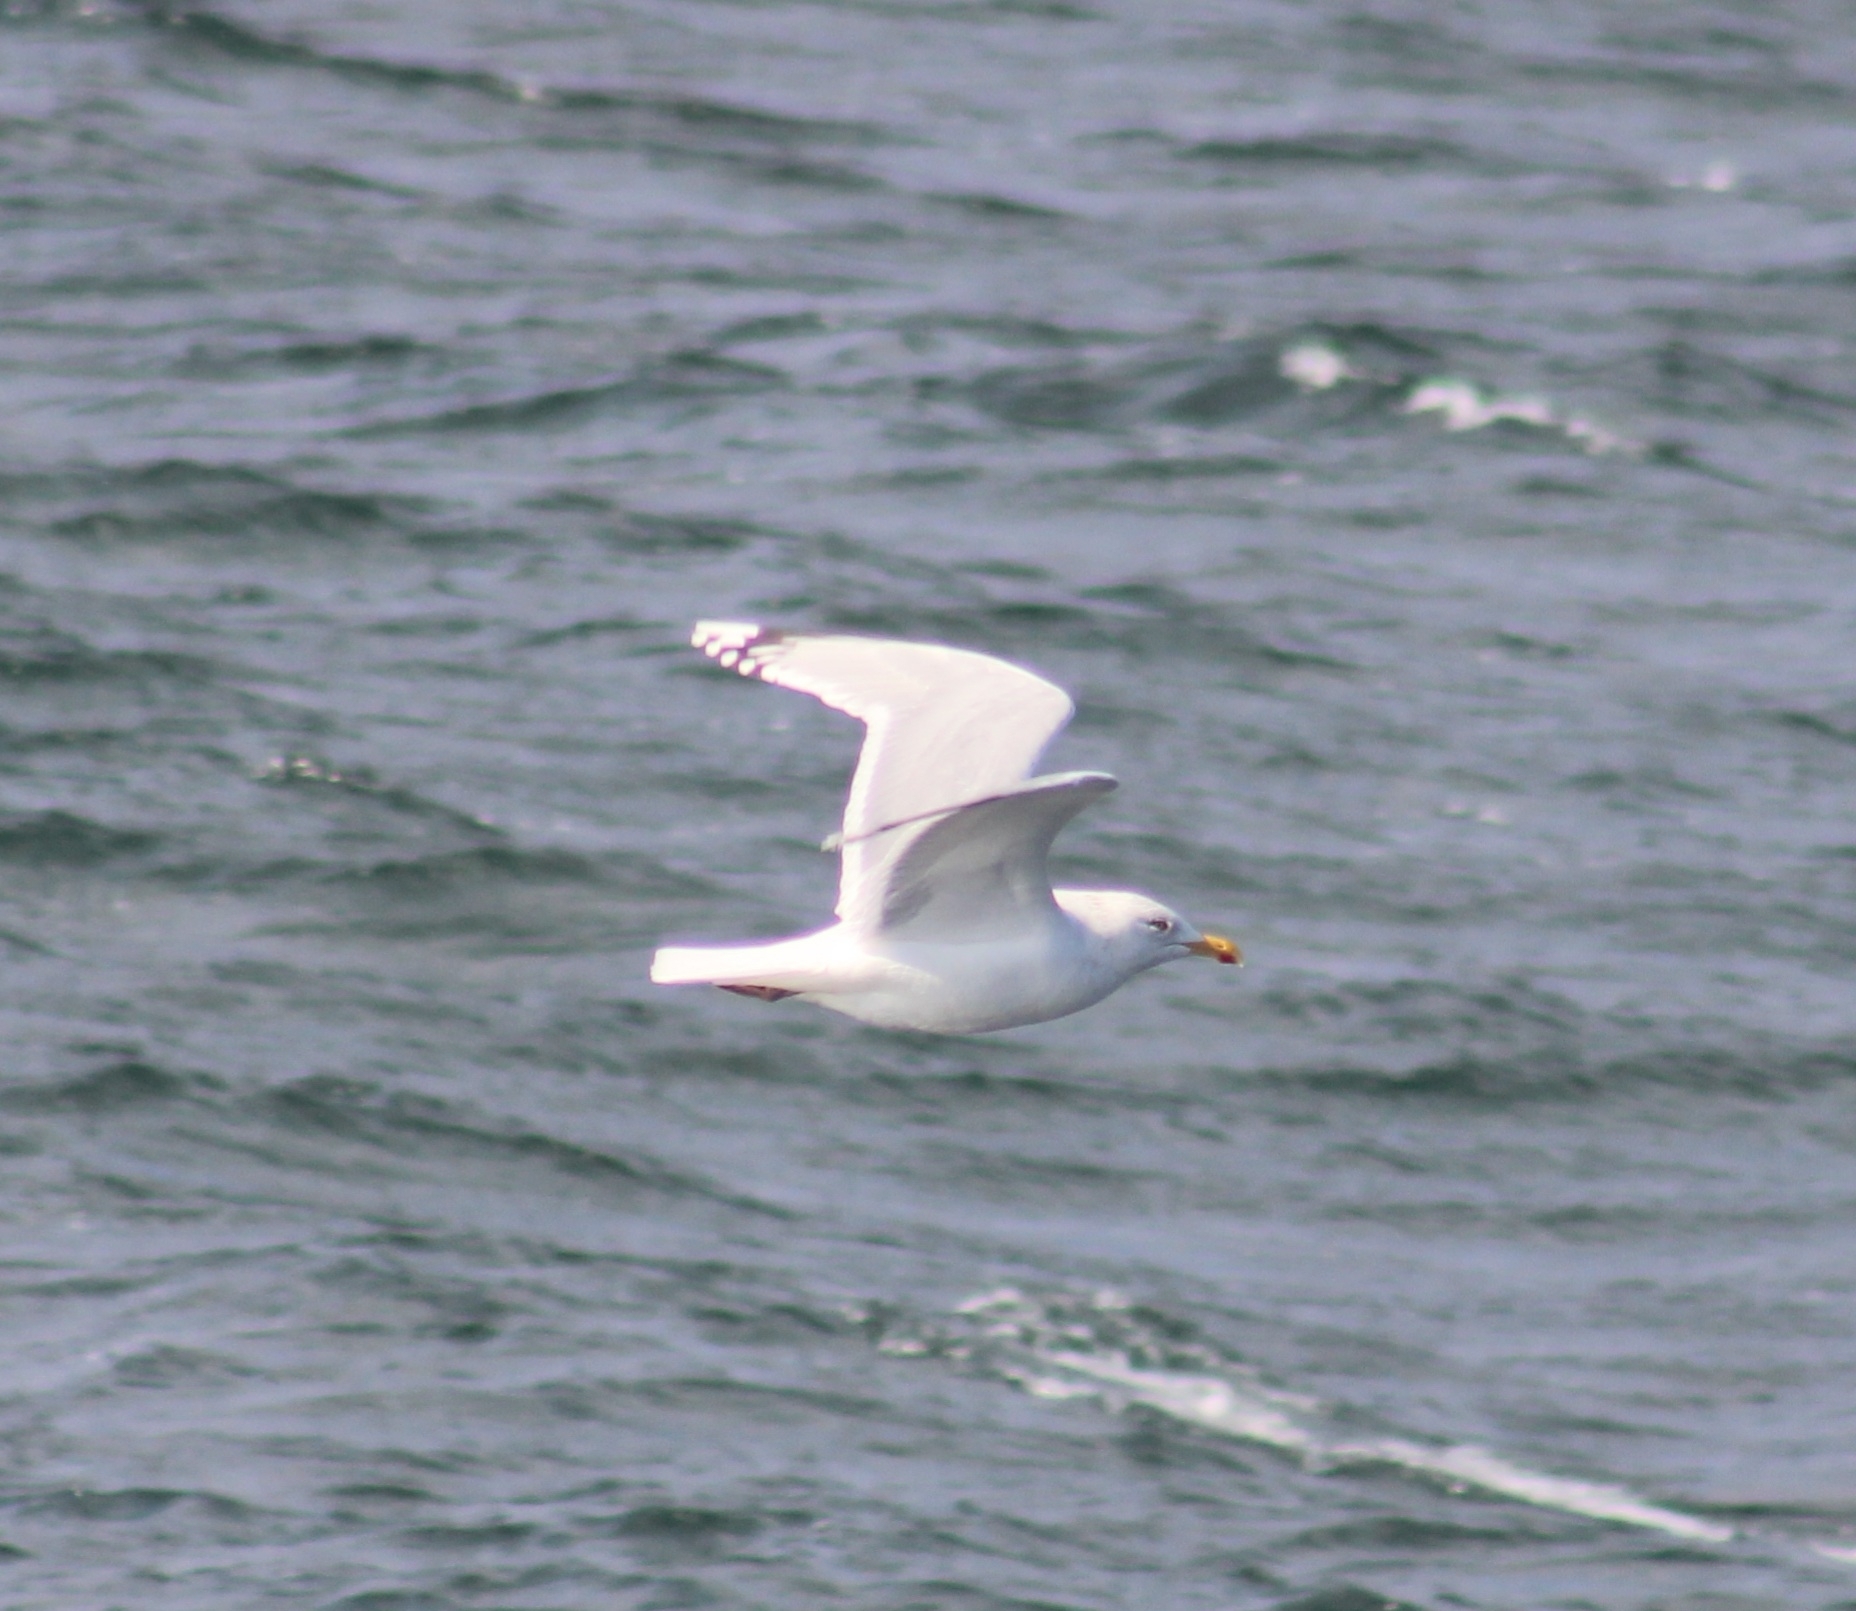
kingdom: Animalia
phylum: Chordata
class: Aves
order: Charadriiformes
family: Laridae
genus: Larus
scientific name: Larus argentatus
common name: Herring gull
